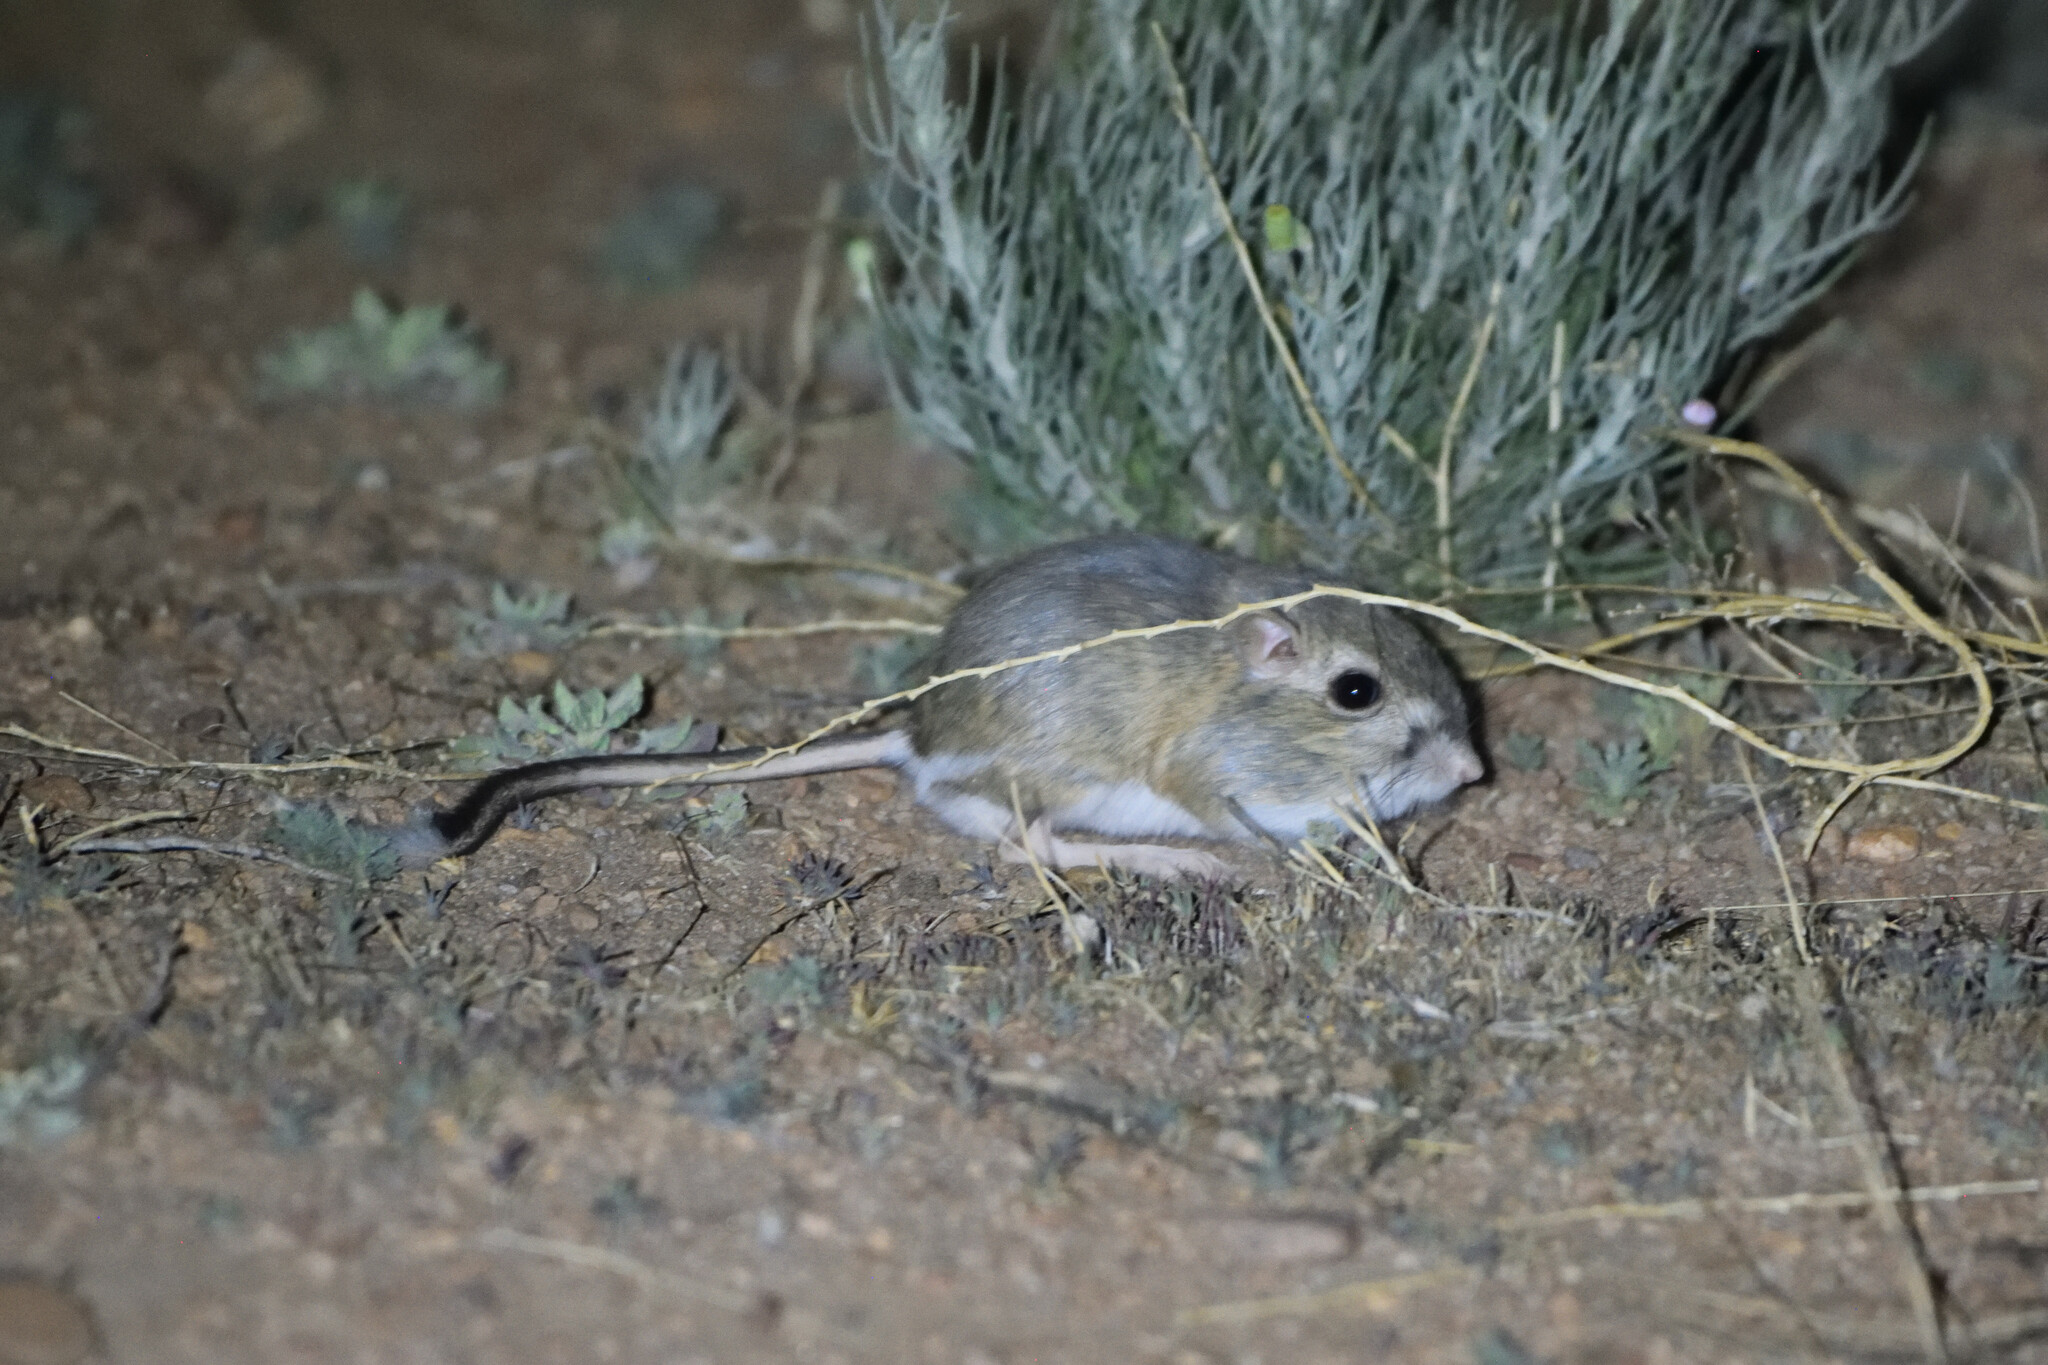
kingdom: Animalia
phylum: Chordata
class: Mammalia
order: Rodentia
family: Heteromyidae
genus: Dipodomys
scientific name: Dipodomys spectabilis
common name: Banner-tailed kangaroo rat
